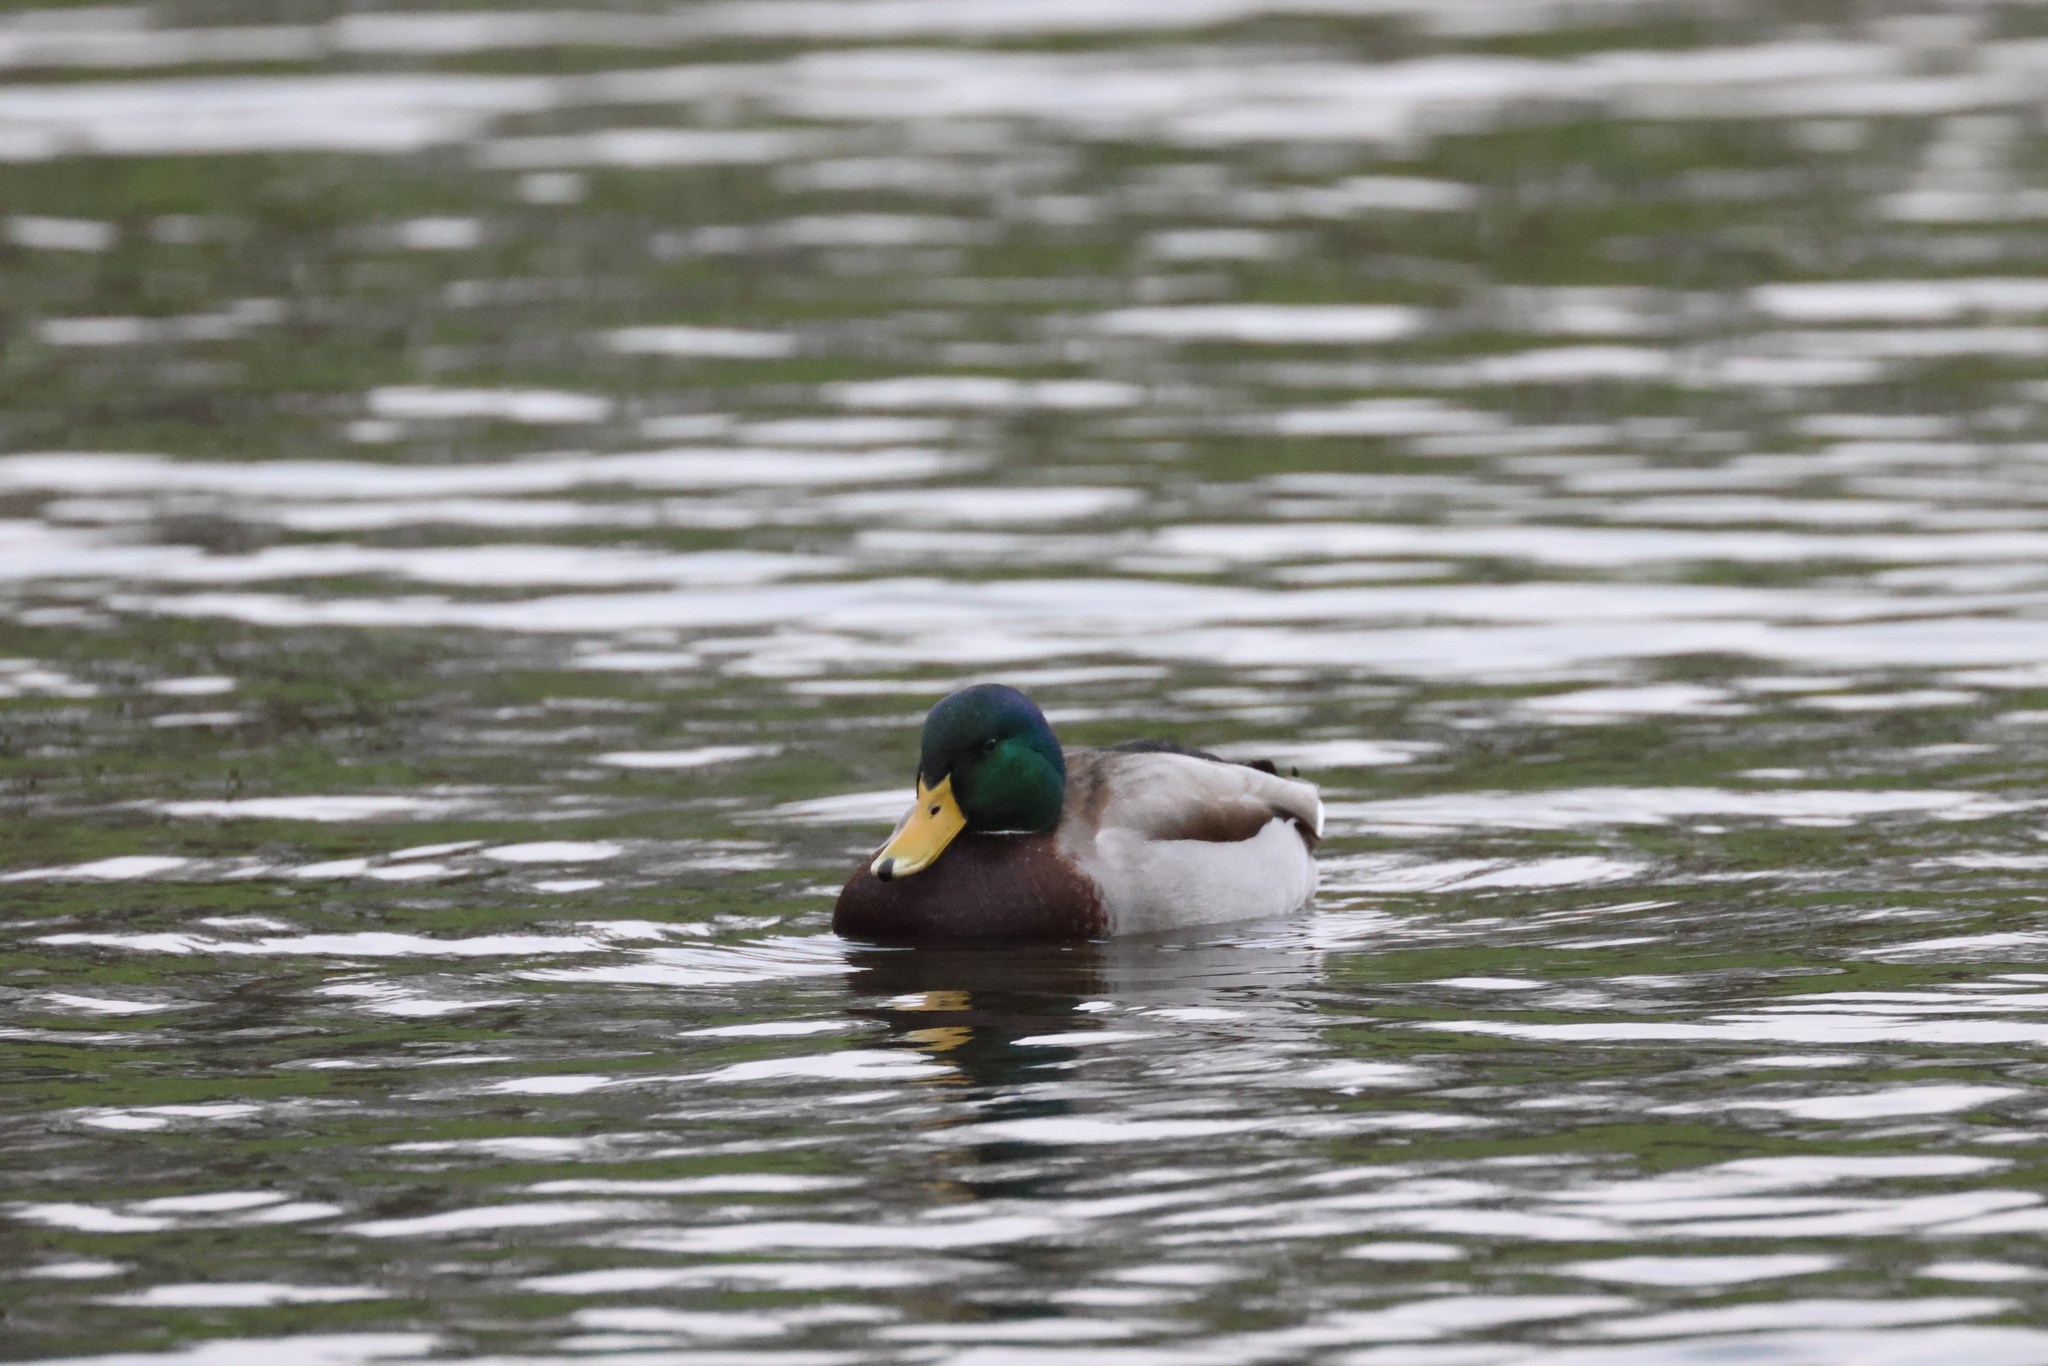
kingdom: Animalia
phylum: Chordata
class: Aves
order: Anseriformes
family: Anatidae
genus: Anas
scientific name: Anas platyrhynchos
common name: Mallard
